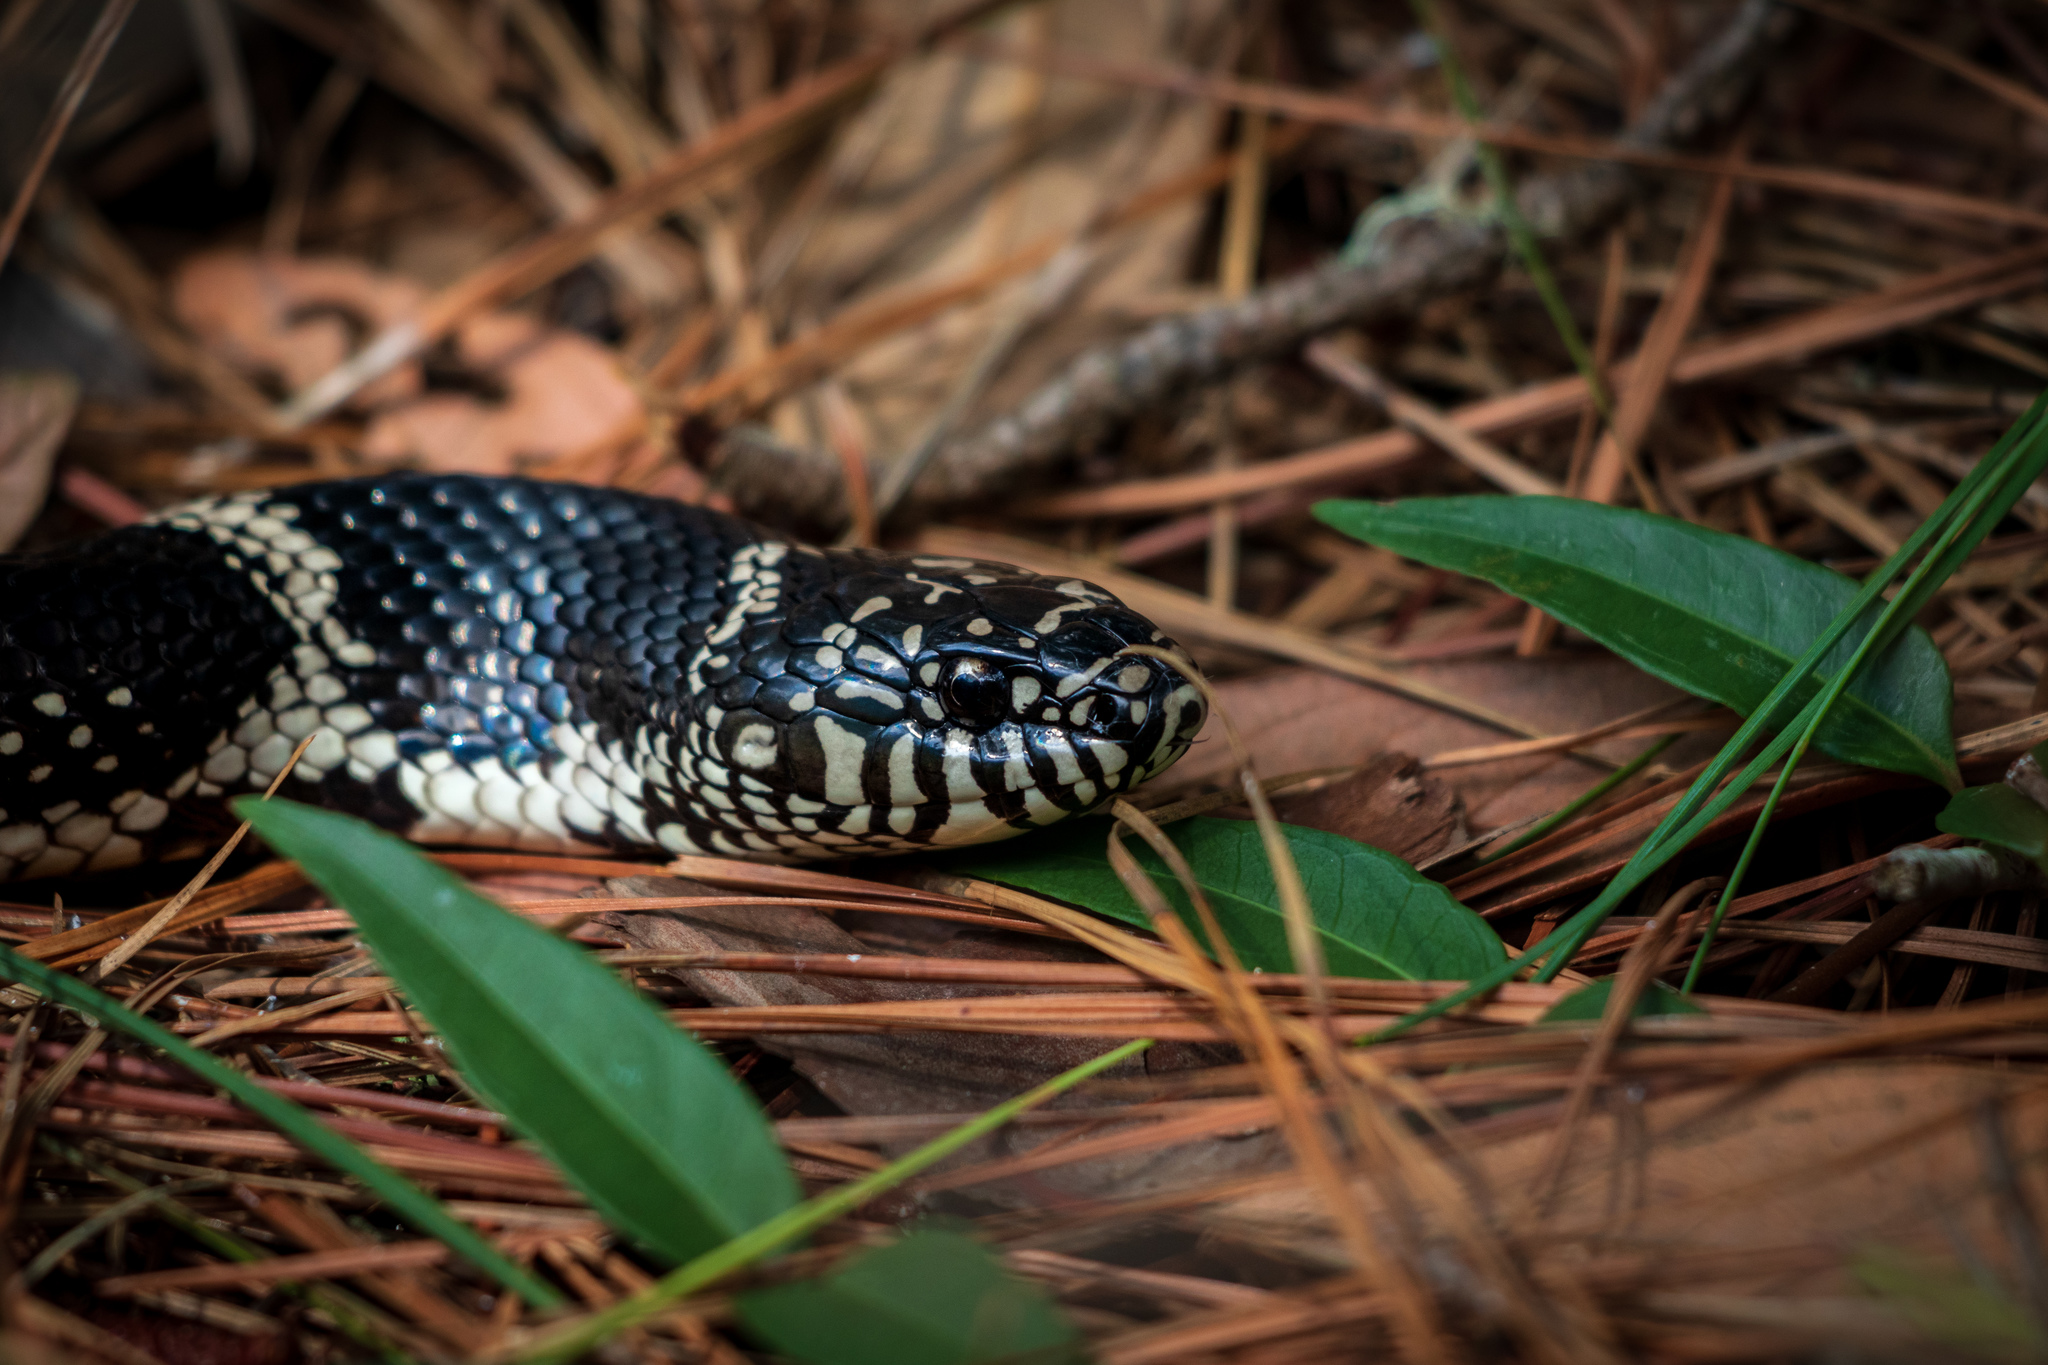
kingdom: Animalia
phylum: Chordata
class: Squamata
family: Colubridae
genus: Lampropeltis
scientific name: Lampropeltis getula
